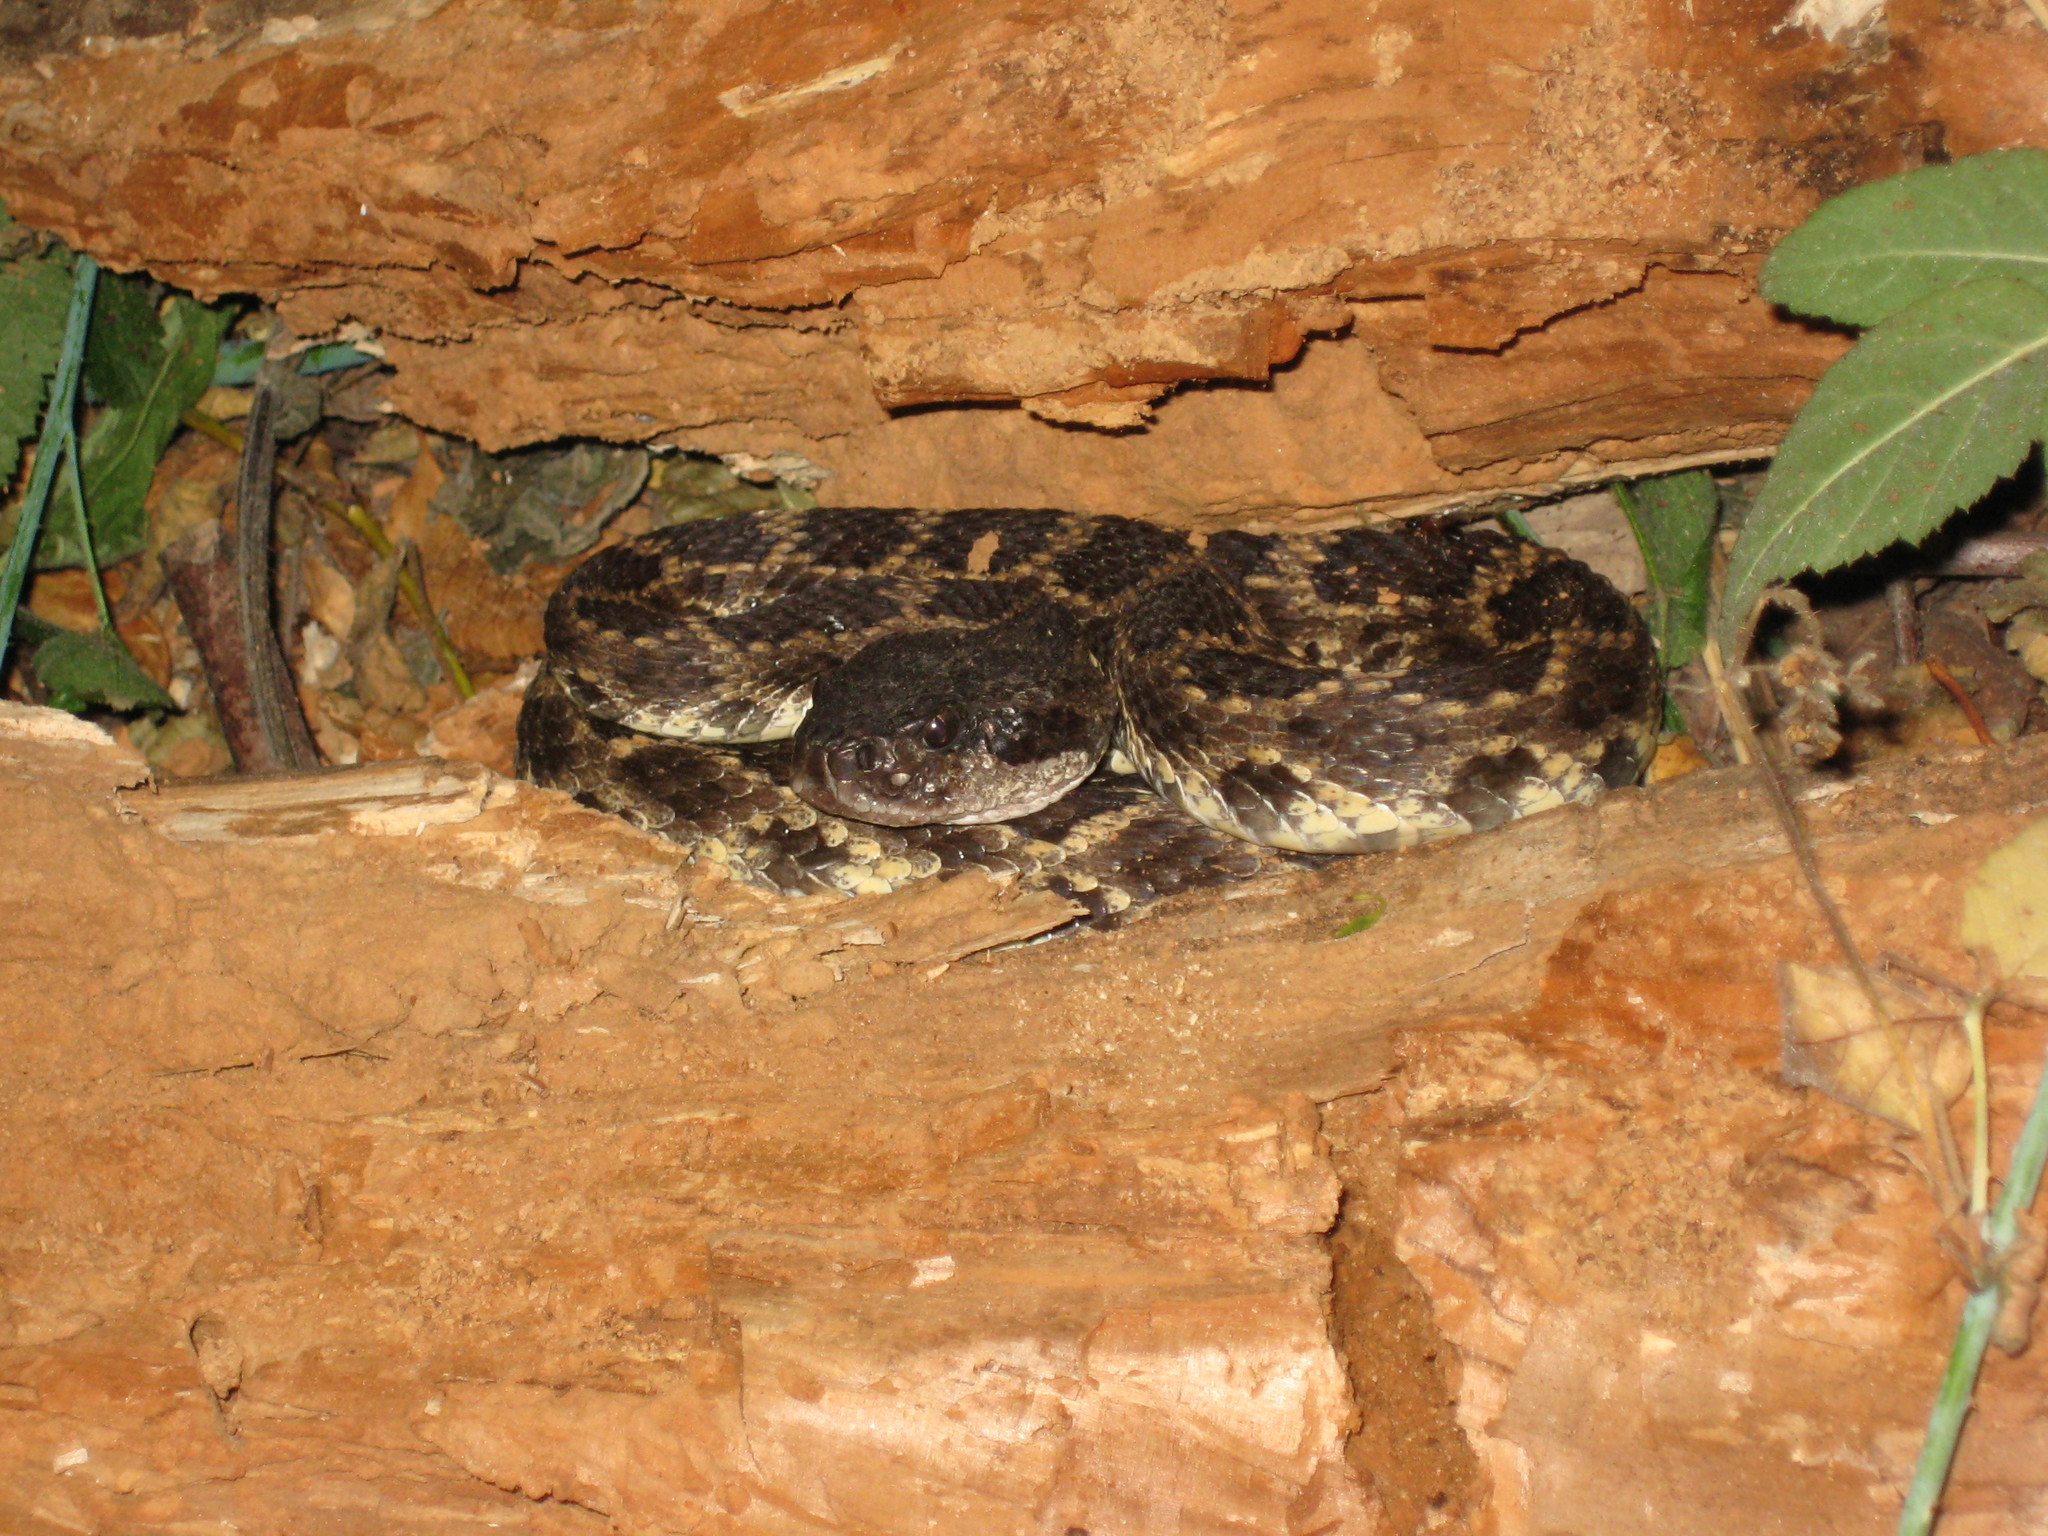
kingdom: Animalia
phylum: Chordata
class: Squamata
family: Viperidae
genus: Crotalus
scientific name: Crotalus oreganus
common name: Abyssus
